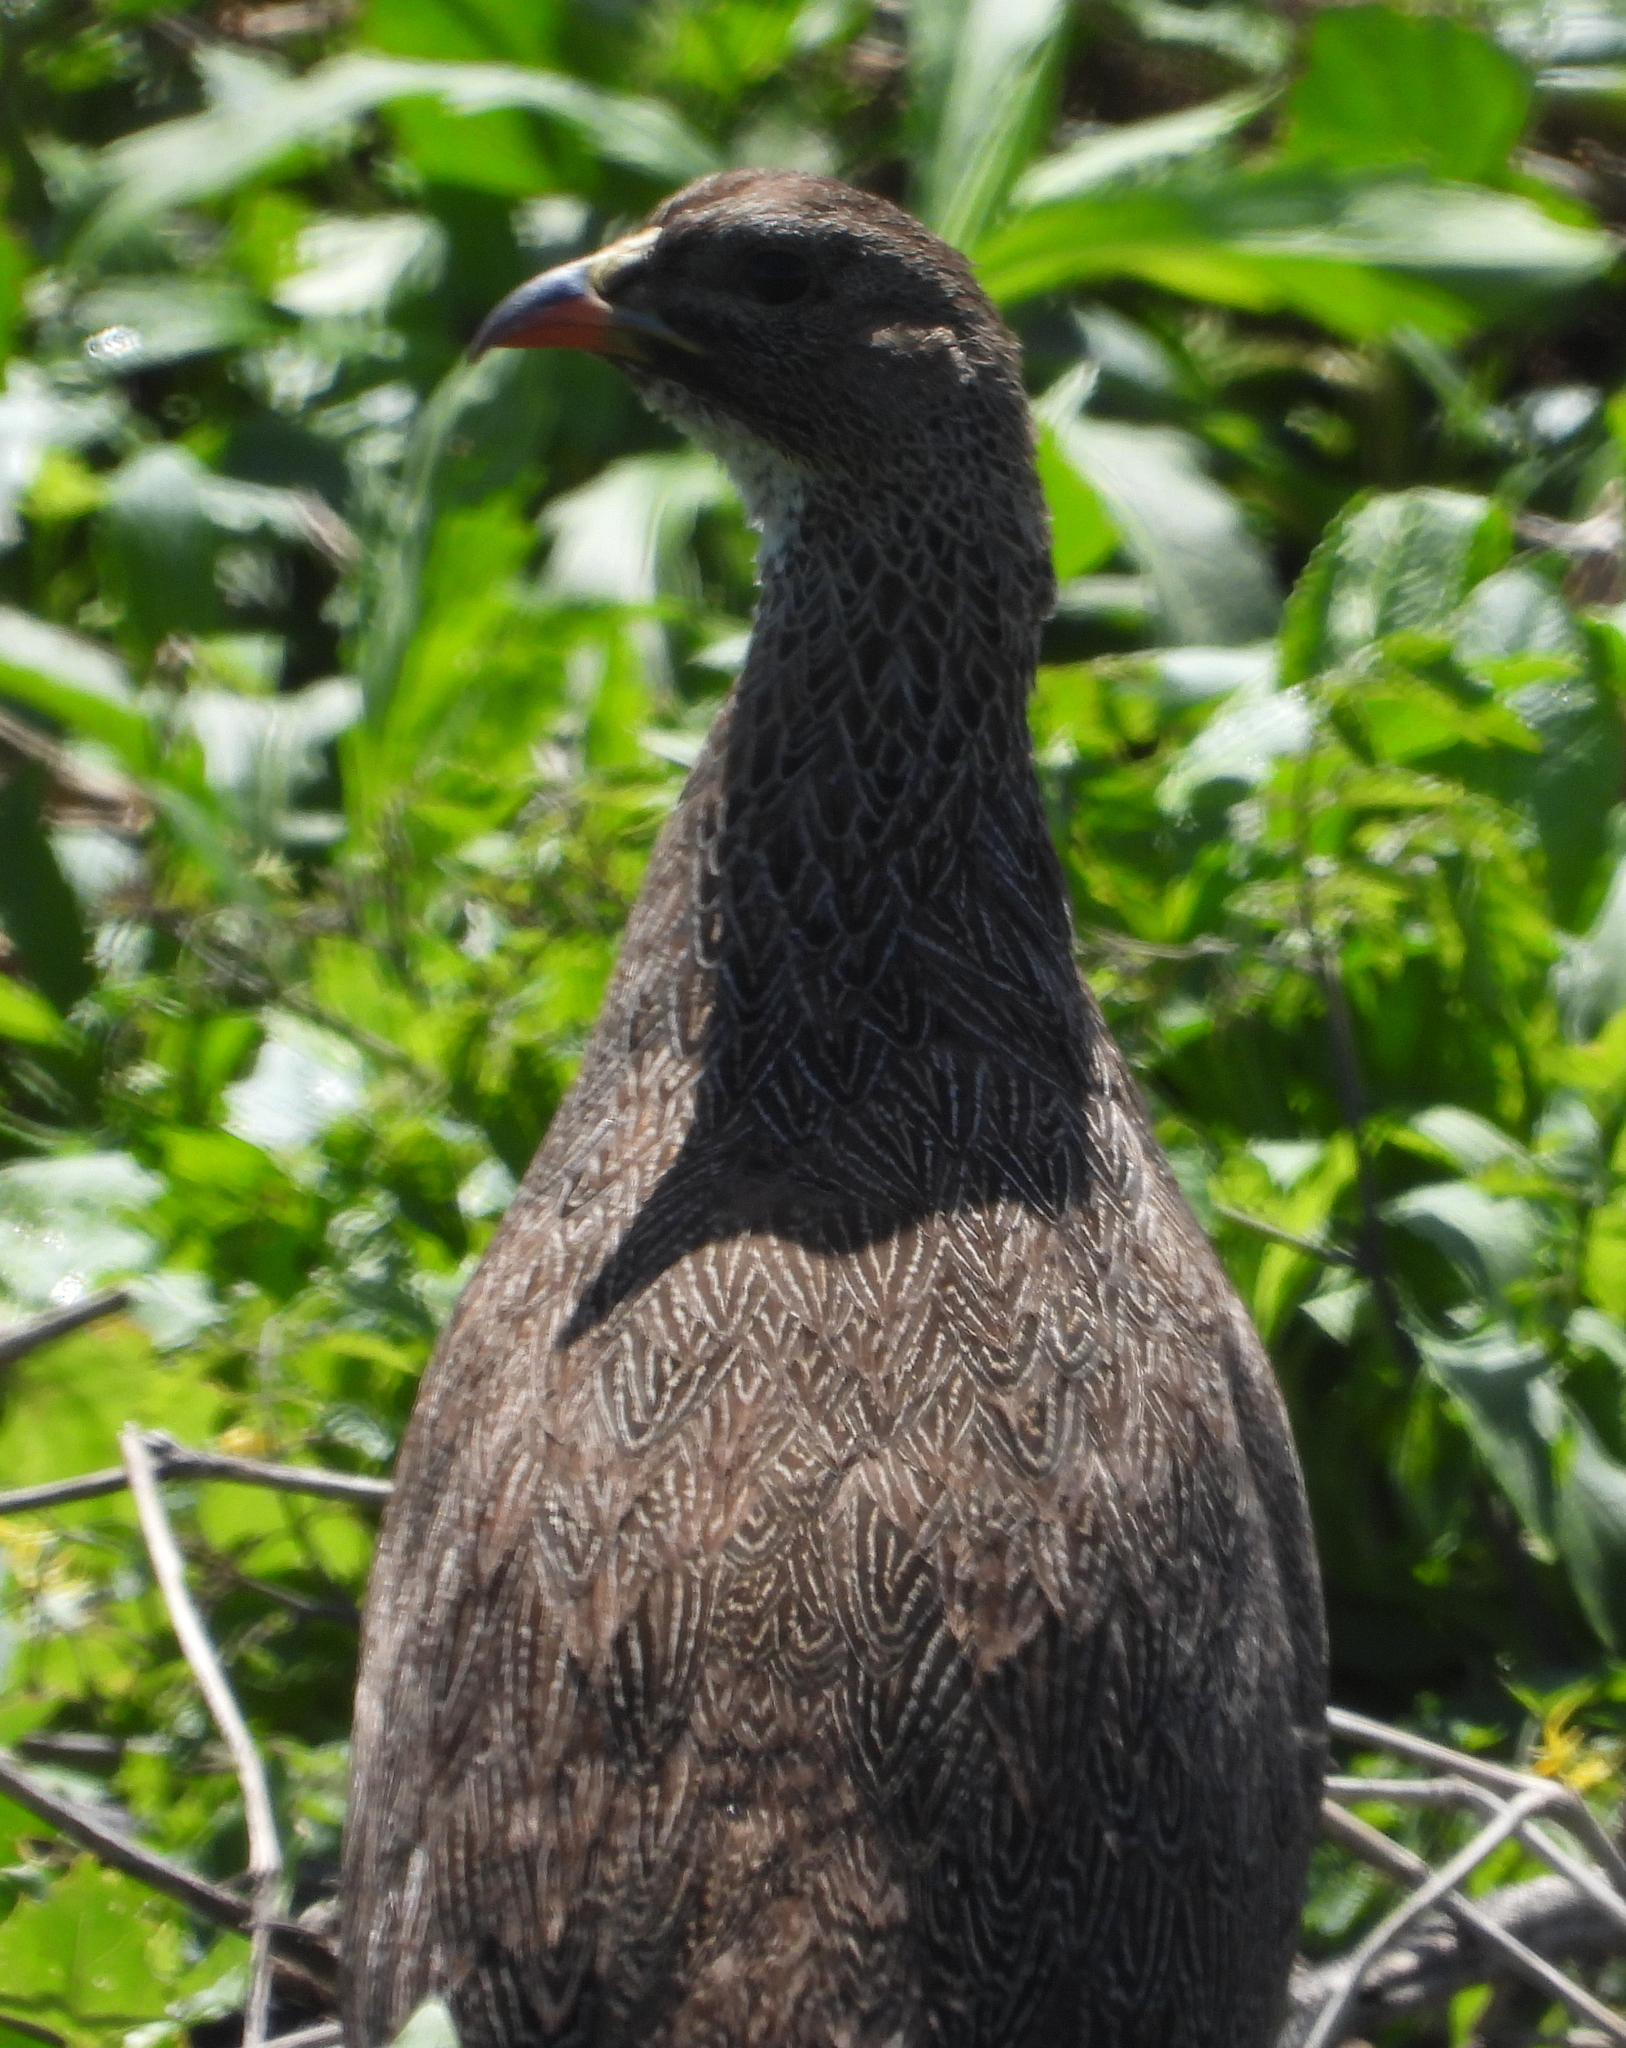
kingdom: Animalia
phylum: Chordata
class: Aves
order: Galliformes
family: Phasianidae
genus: Pternistis
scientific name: Pternistis capensis
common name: Cape spurfowl
